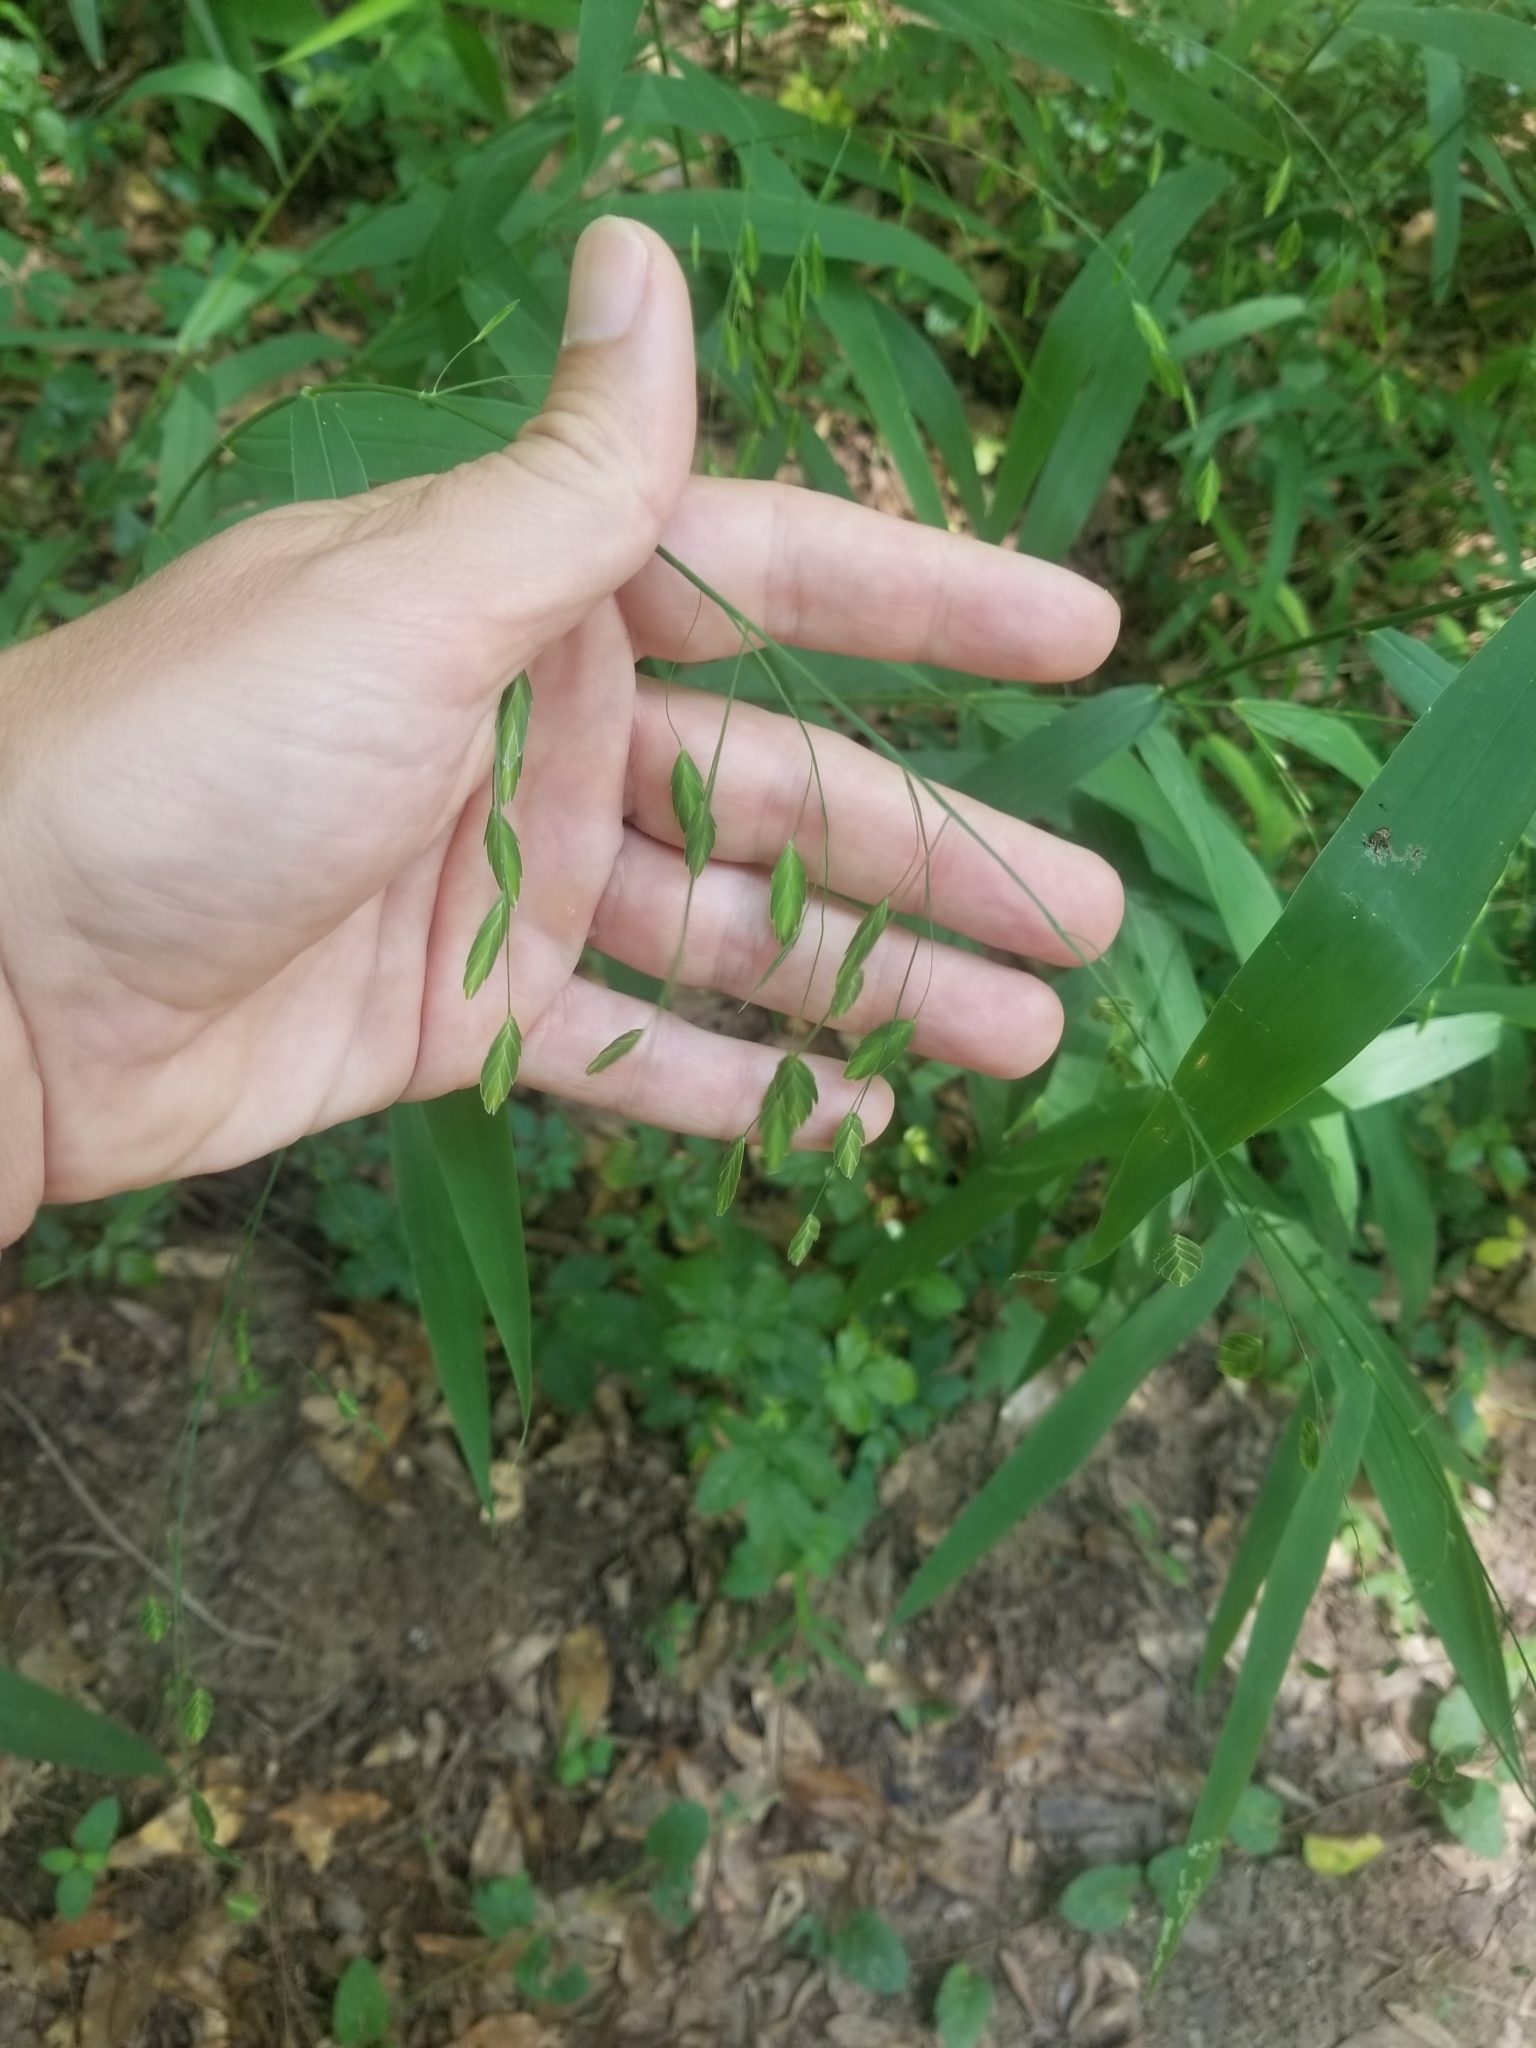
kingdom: Plantae
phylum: Tracheophyta
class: Liliopsida
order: Poales
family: Poaceae
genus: Chasmanthium
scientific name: Chasmanthium latifolium
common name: Broad-leaved chasmanthium
